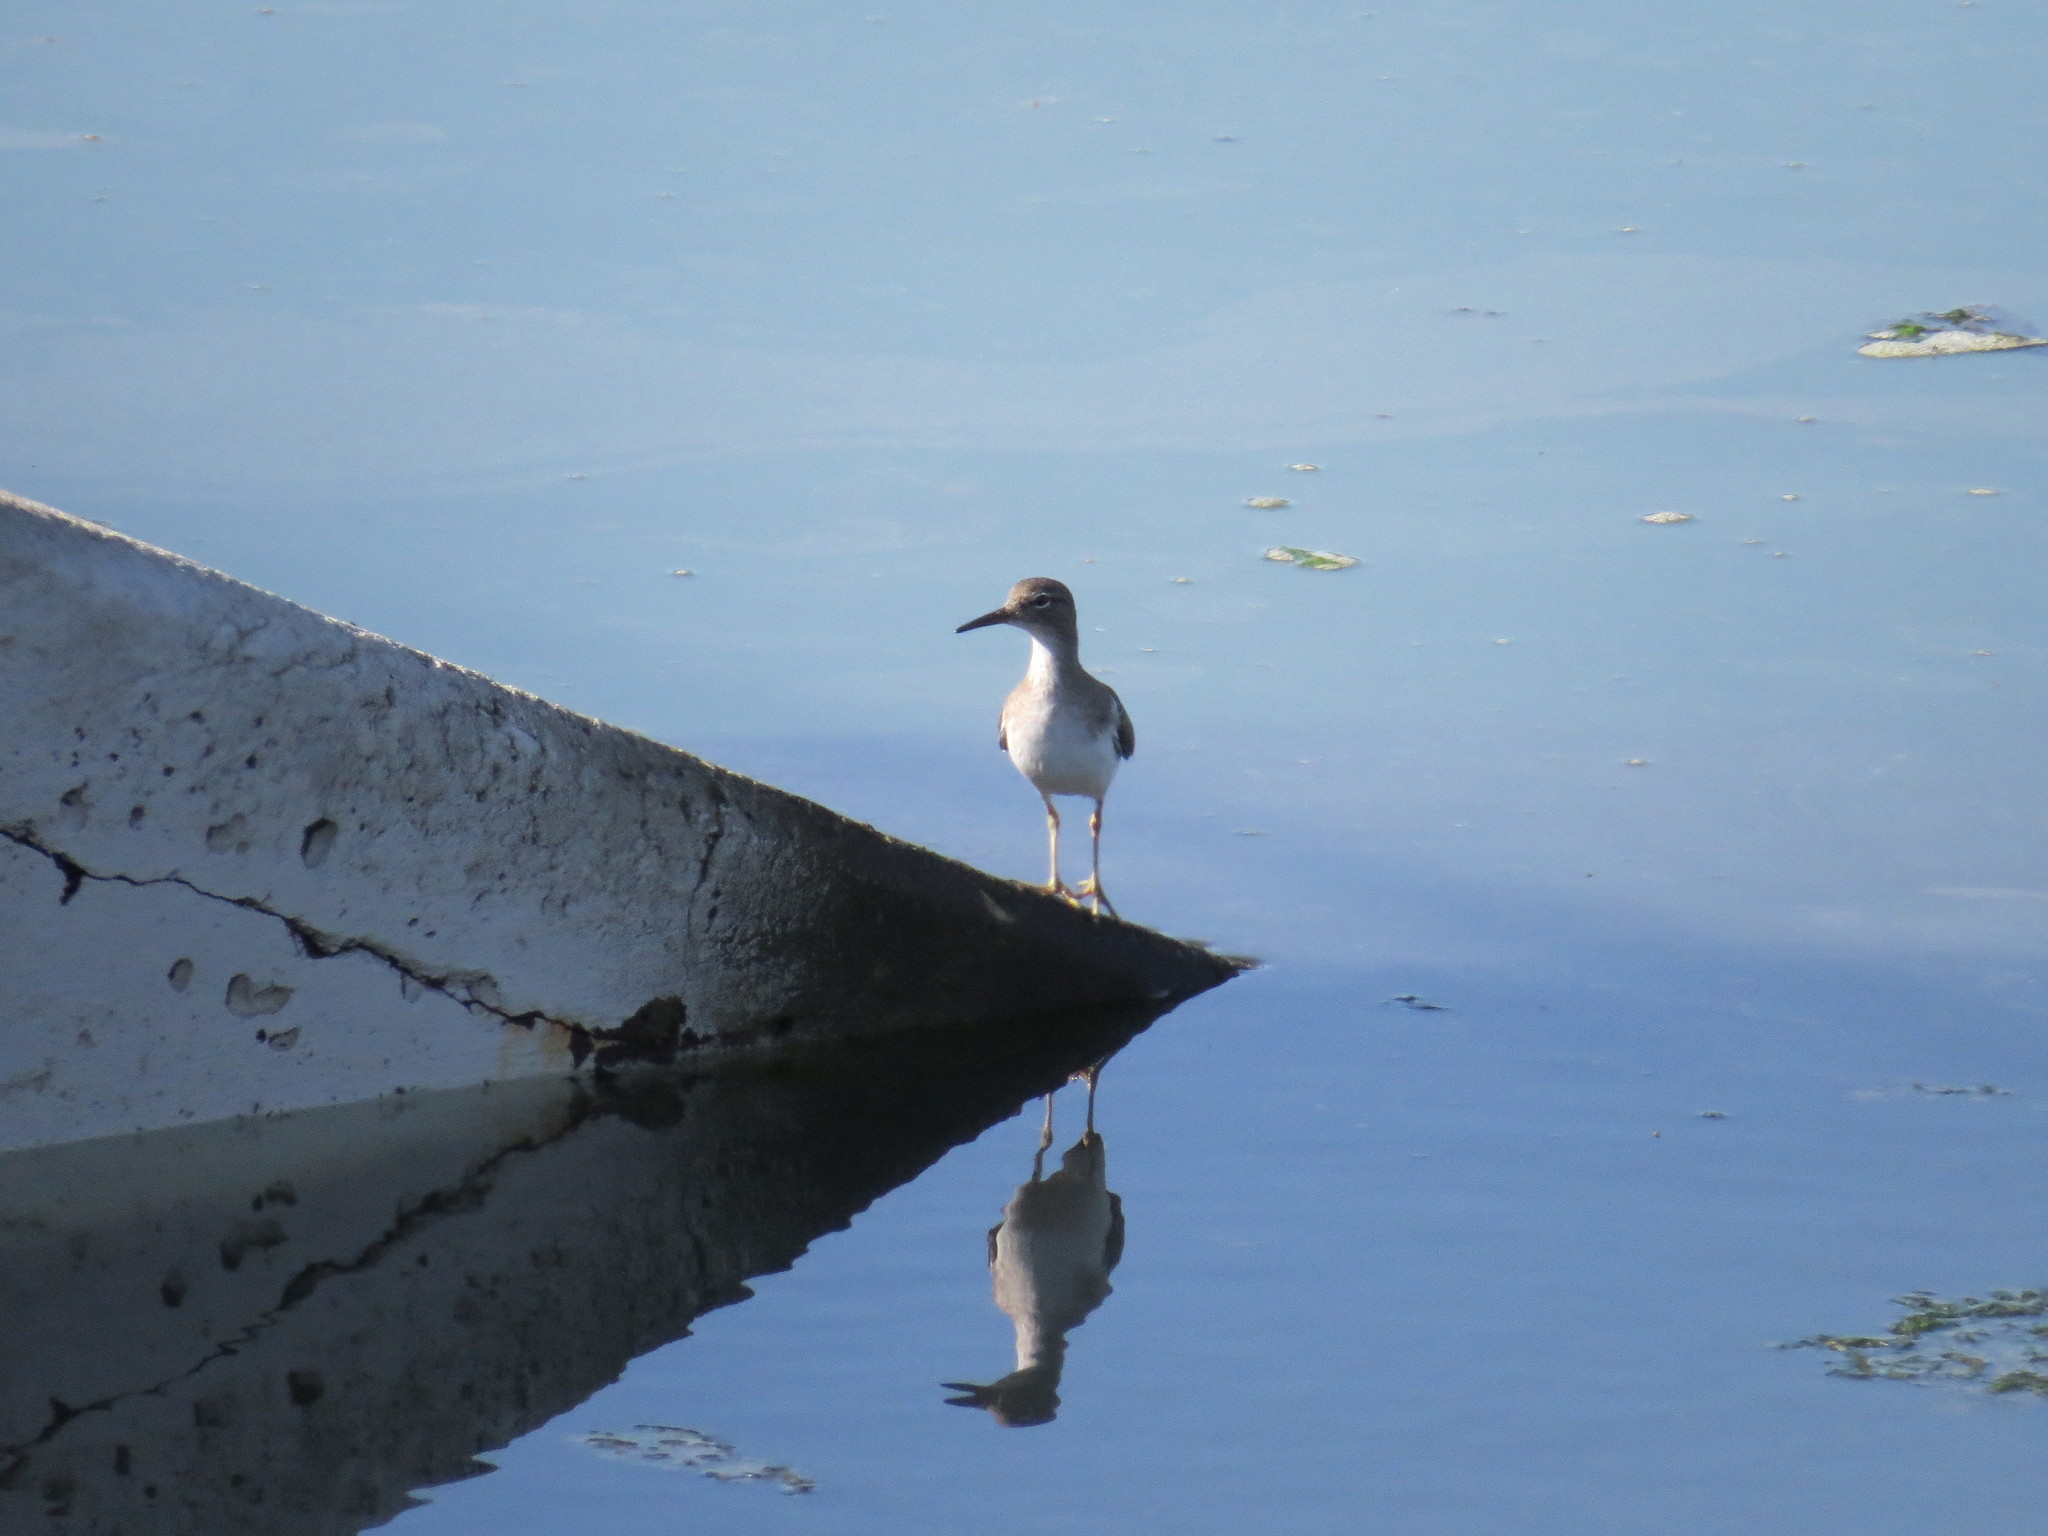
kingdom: Animalia
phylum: Chordata
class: Aves
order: Charadriiformes
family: Scolopacidae
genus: Actitis
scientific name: Actitis macularius
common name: Spotted sandpiper
